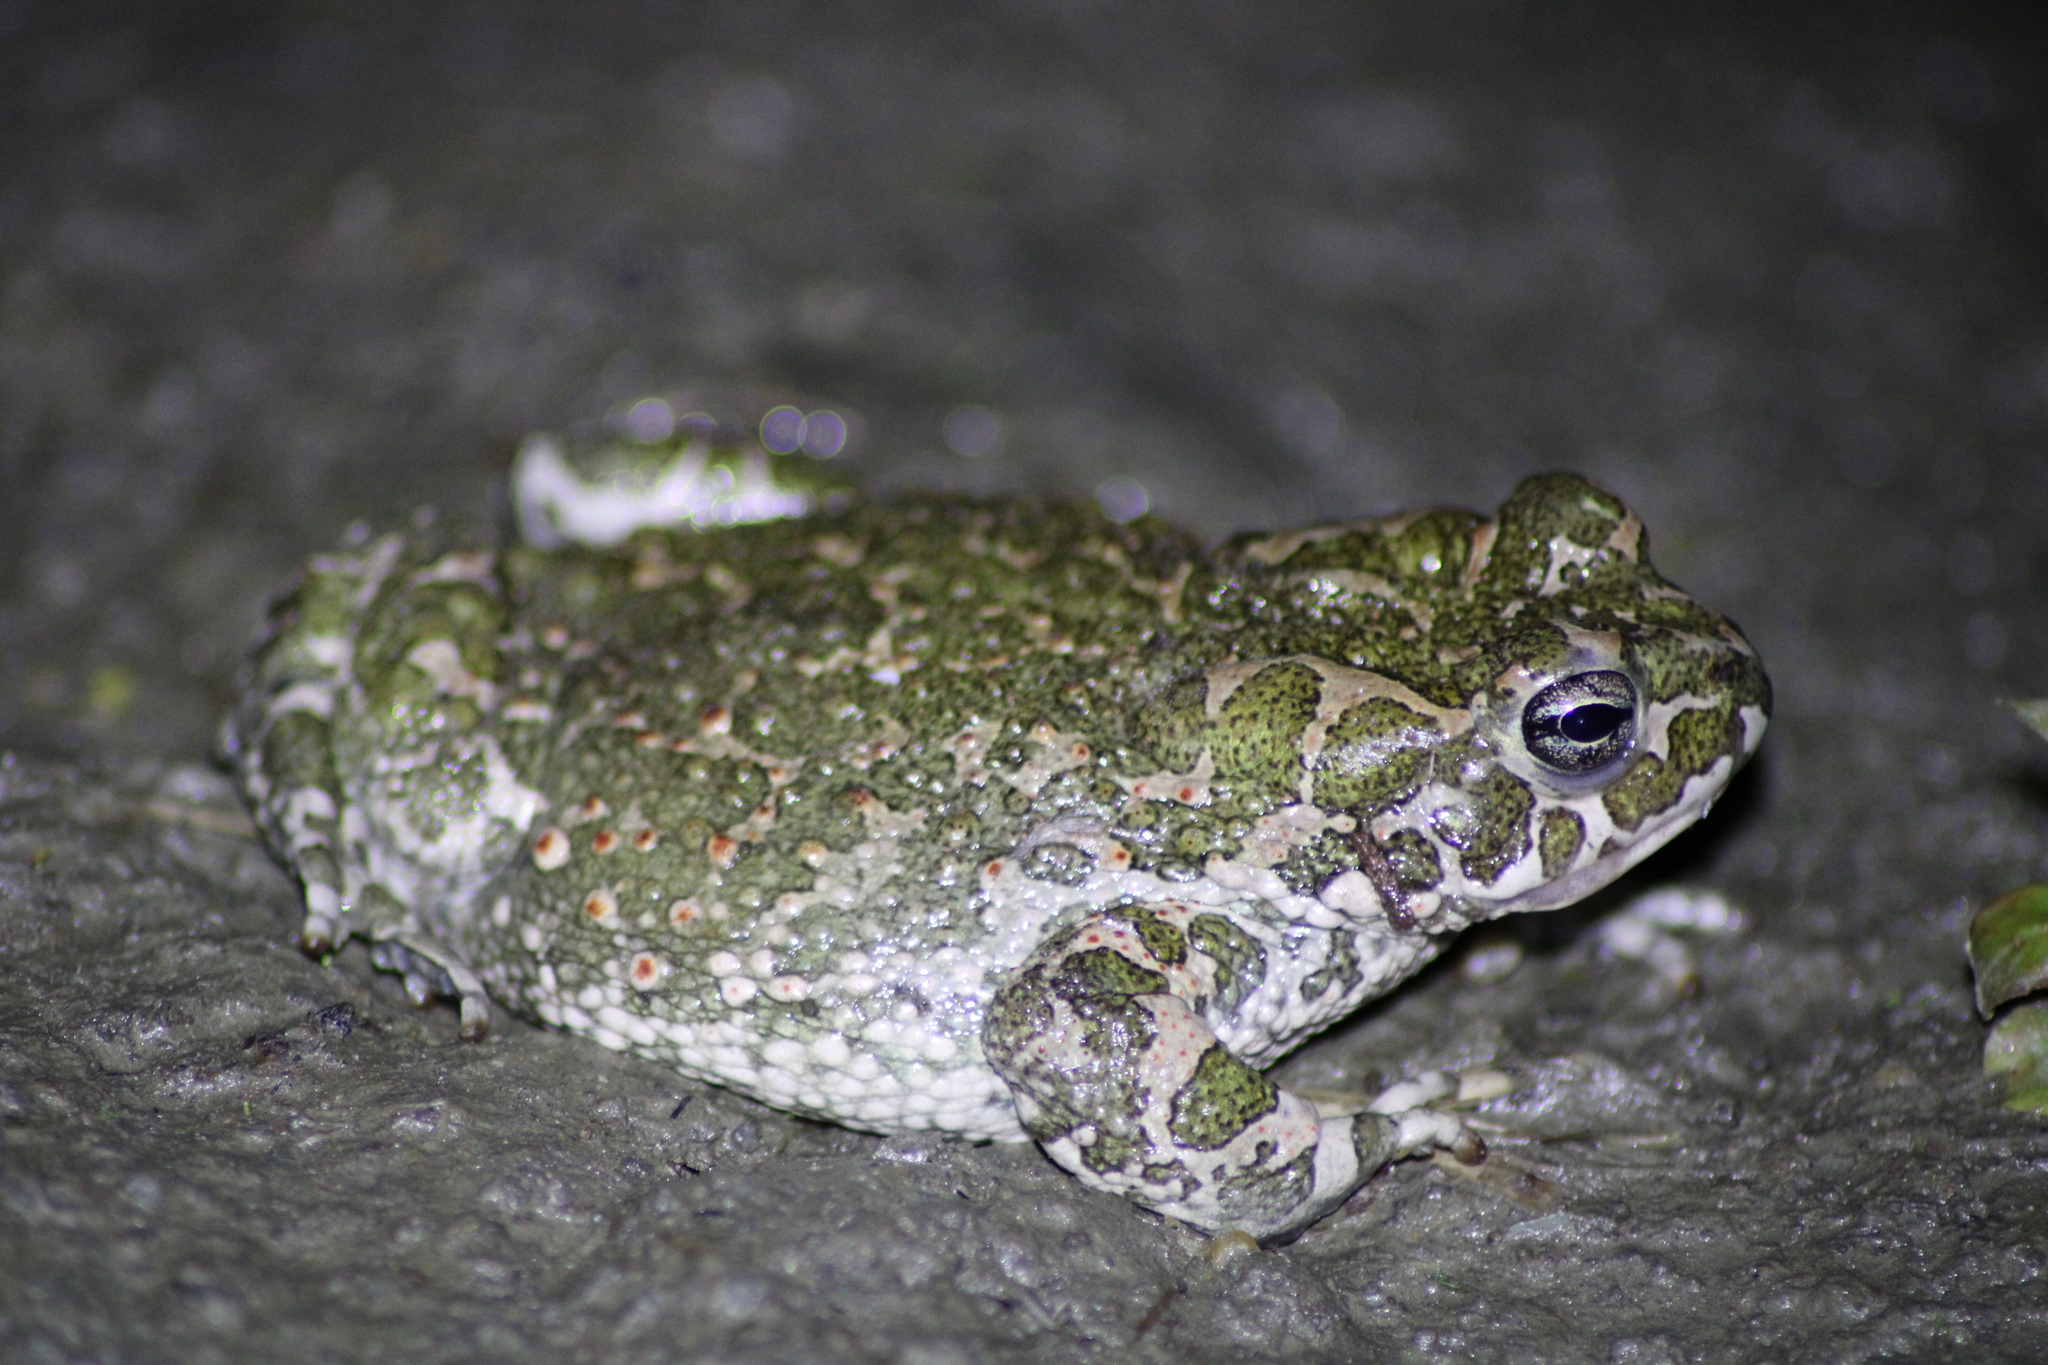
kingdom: Animalia
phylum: Chordata
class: Amphibia
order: Anura
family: Bufonidae
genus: Bufotes
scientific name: Bufotes viridis
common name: European green toad
